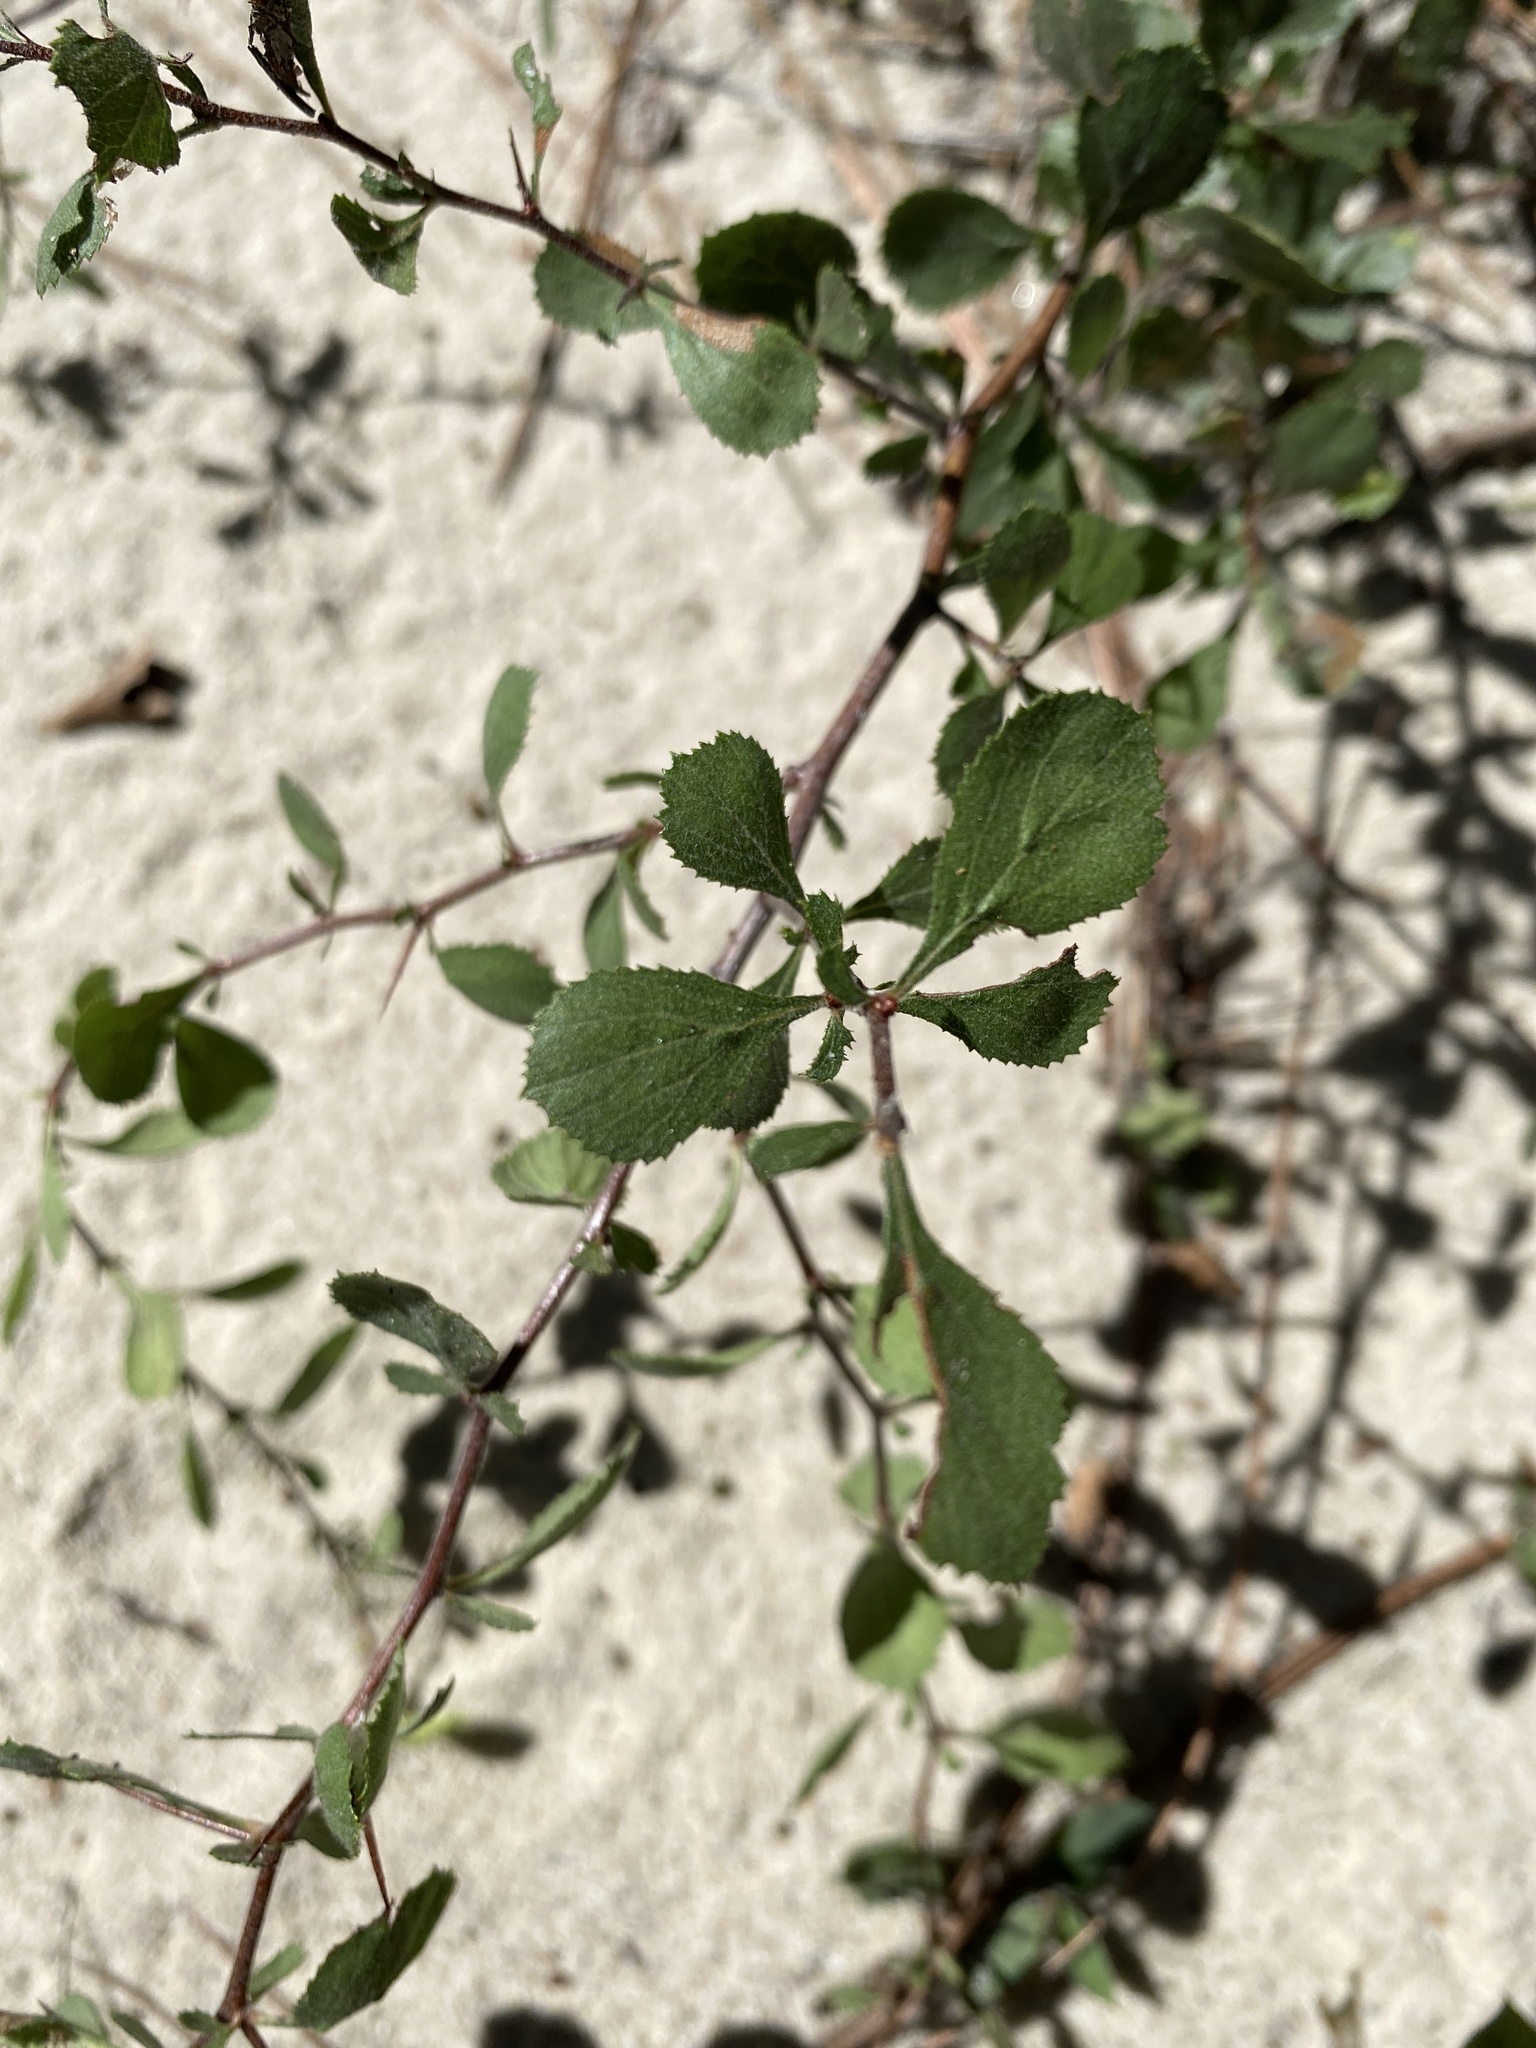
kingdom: Plantae
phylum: Tracheophyta
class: Magnoliopsida
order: Rosales
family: Rosaceae
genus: Crataegus
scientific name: Crataegus munda
